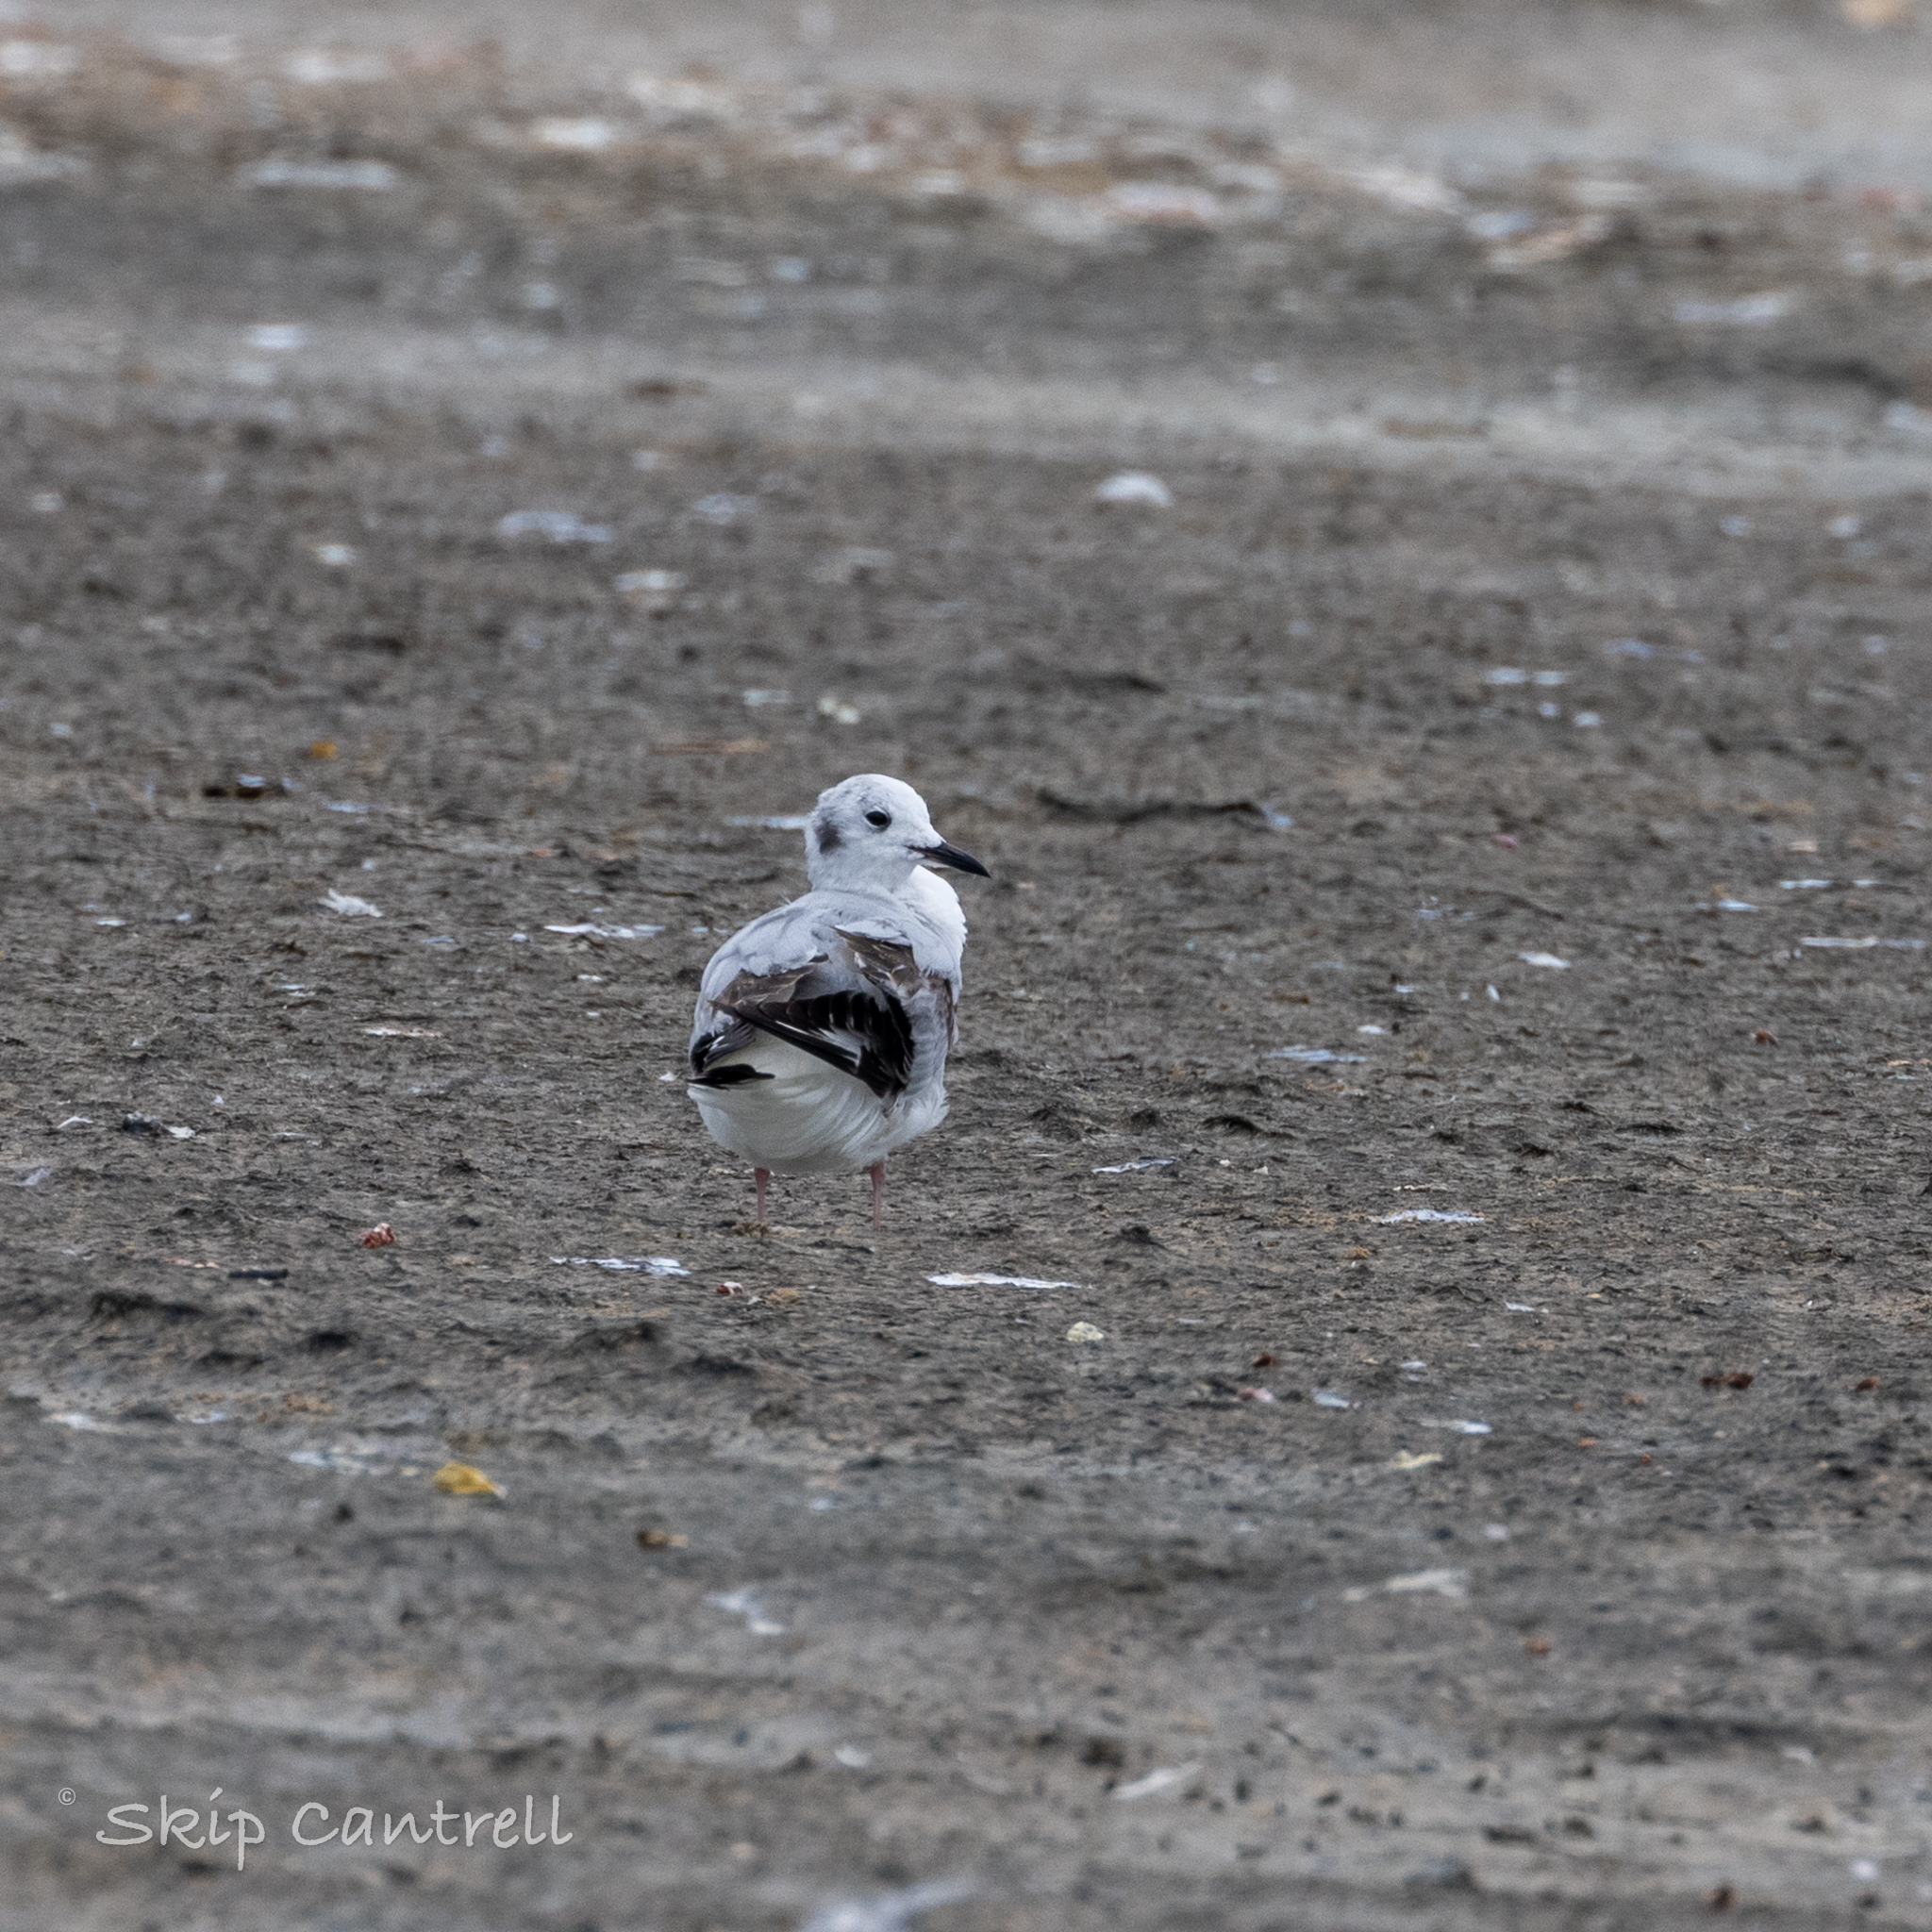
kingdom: Animalia
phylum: Chordata
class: Aves
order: Charadriiformes
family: Laridae
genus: Chroicocephalus
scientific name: Chroicocephalus philadelphia
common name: Bonaparte's gull
